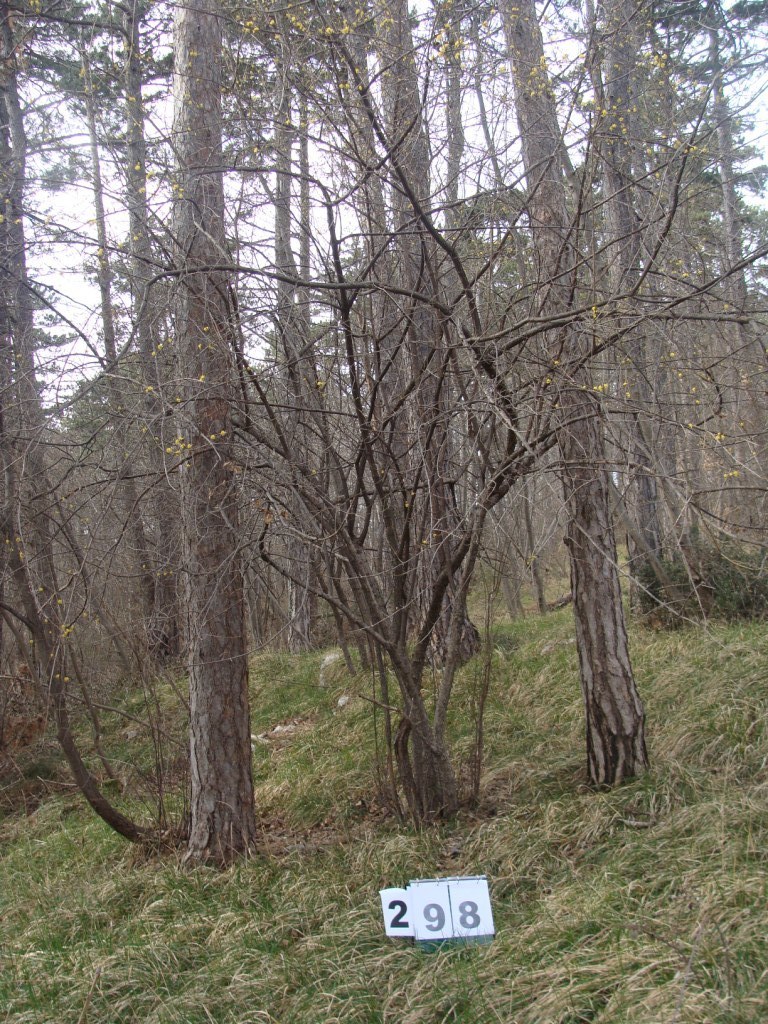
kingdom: Plantae
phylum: Tracheophyta
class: Magnoliopsida
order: Cornales
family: Cornaceae
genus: Cornus
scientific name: Cornus mas
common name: Cornelian-cherry
